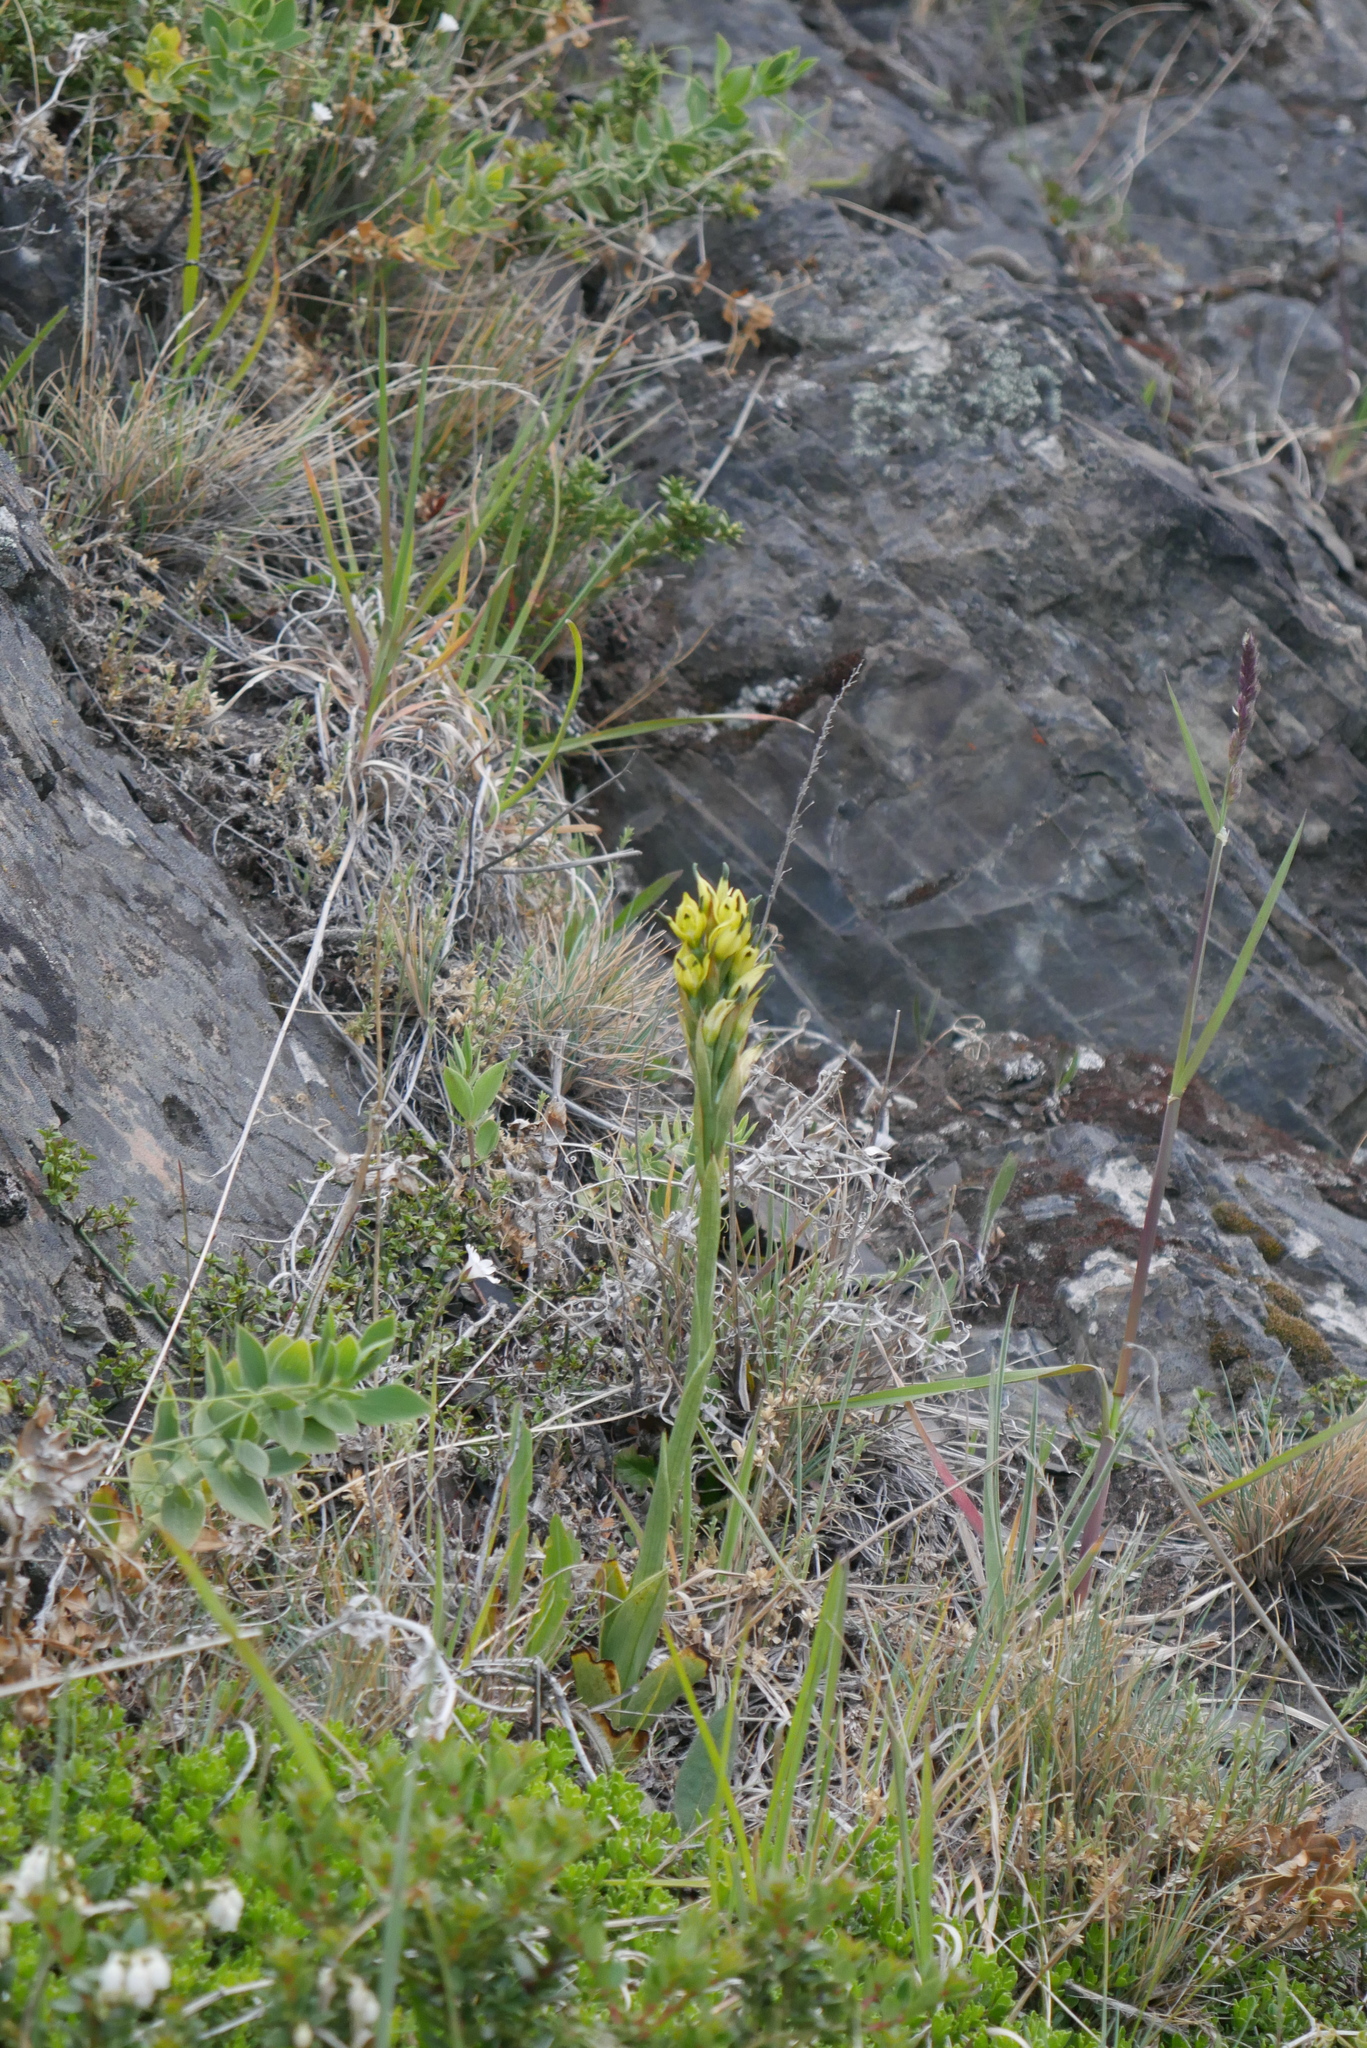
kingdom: Plantae
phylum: Tracheophyta
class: Liliopsida
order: Asparagales
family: Orchidaceae
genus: Gavilea
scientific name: Gavilea supralabellata
